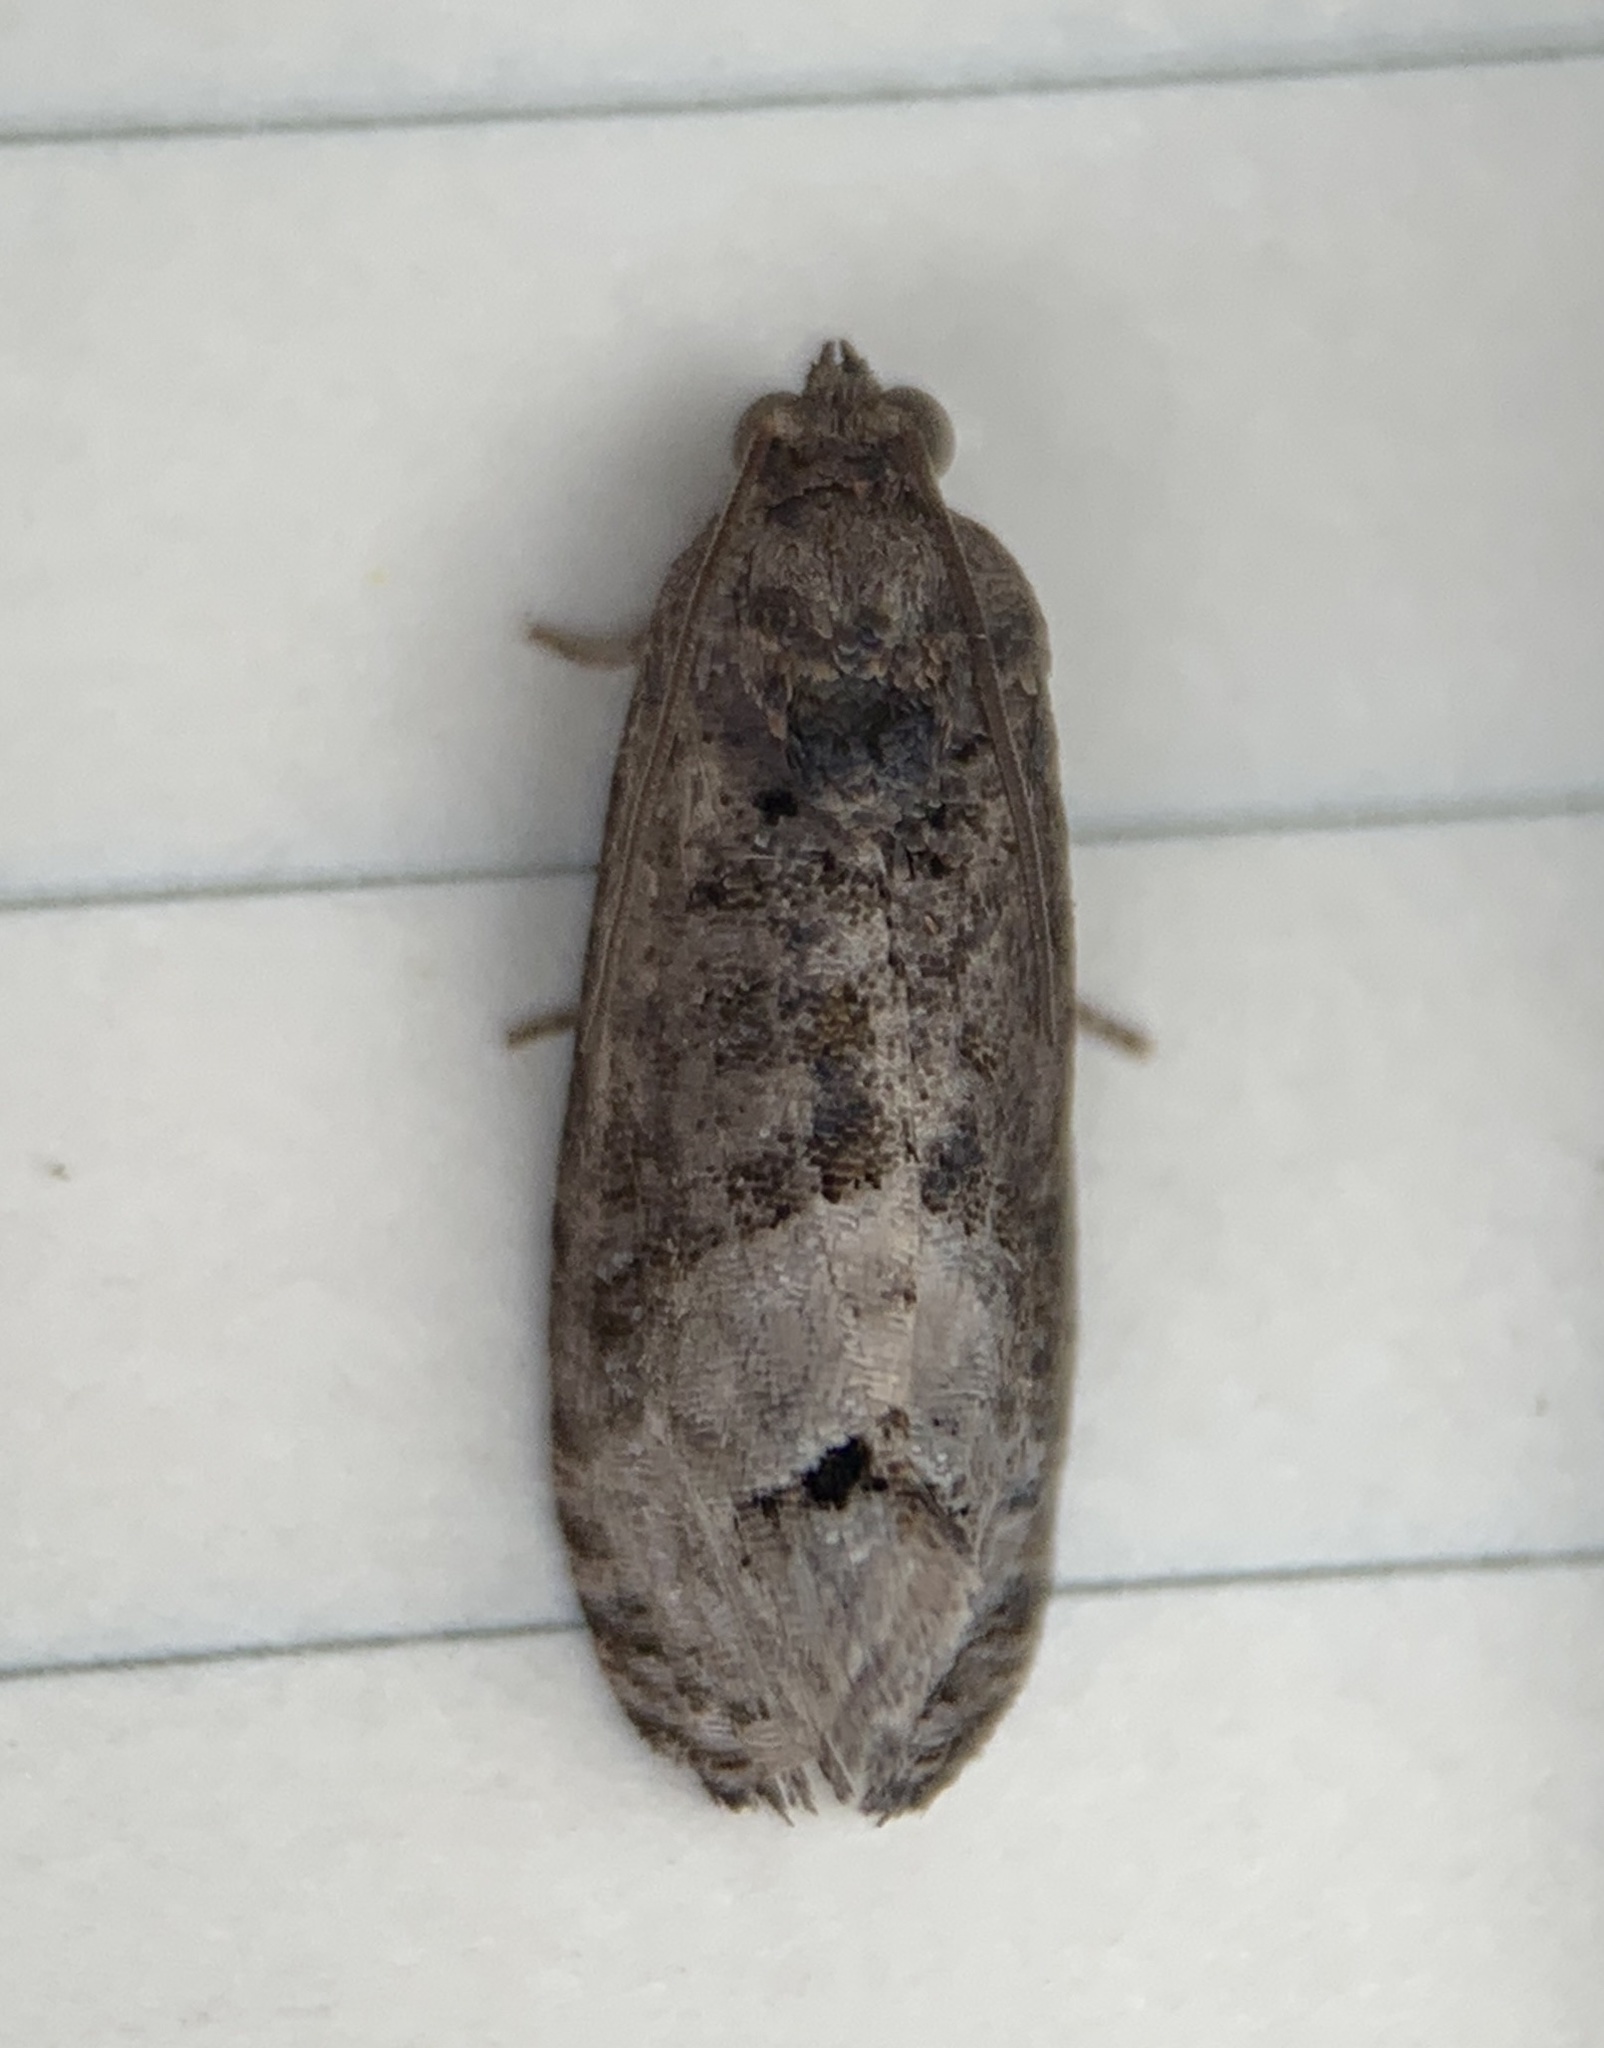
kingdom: Animalia
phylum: Arthropoda
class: Insecta
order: Lepidoptera
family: Tortricidae
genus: Ecdytolopha
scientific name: Ecdytolopha insiticiana
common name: Locust twig borer moth
